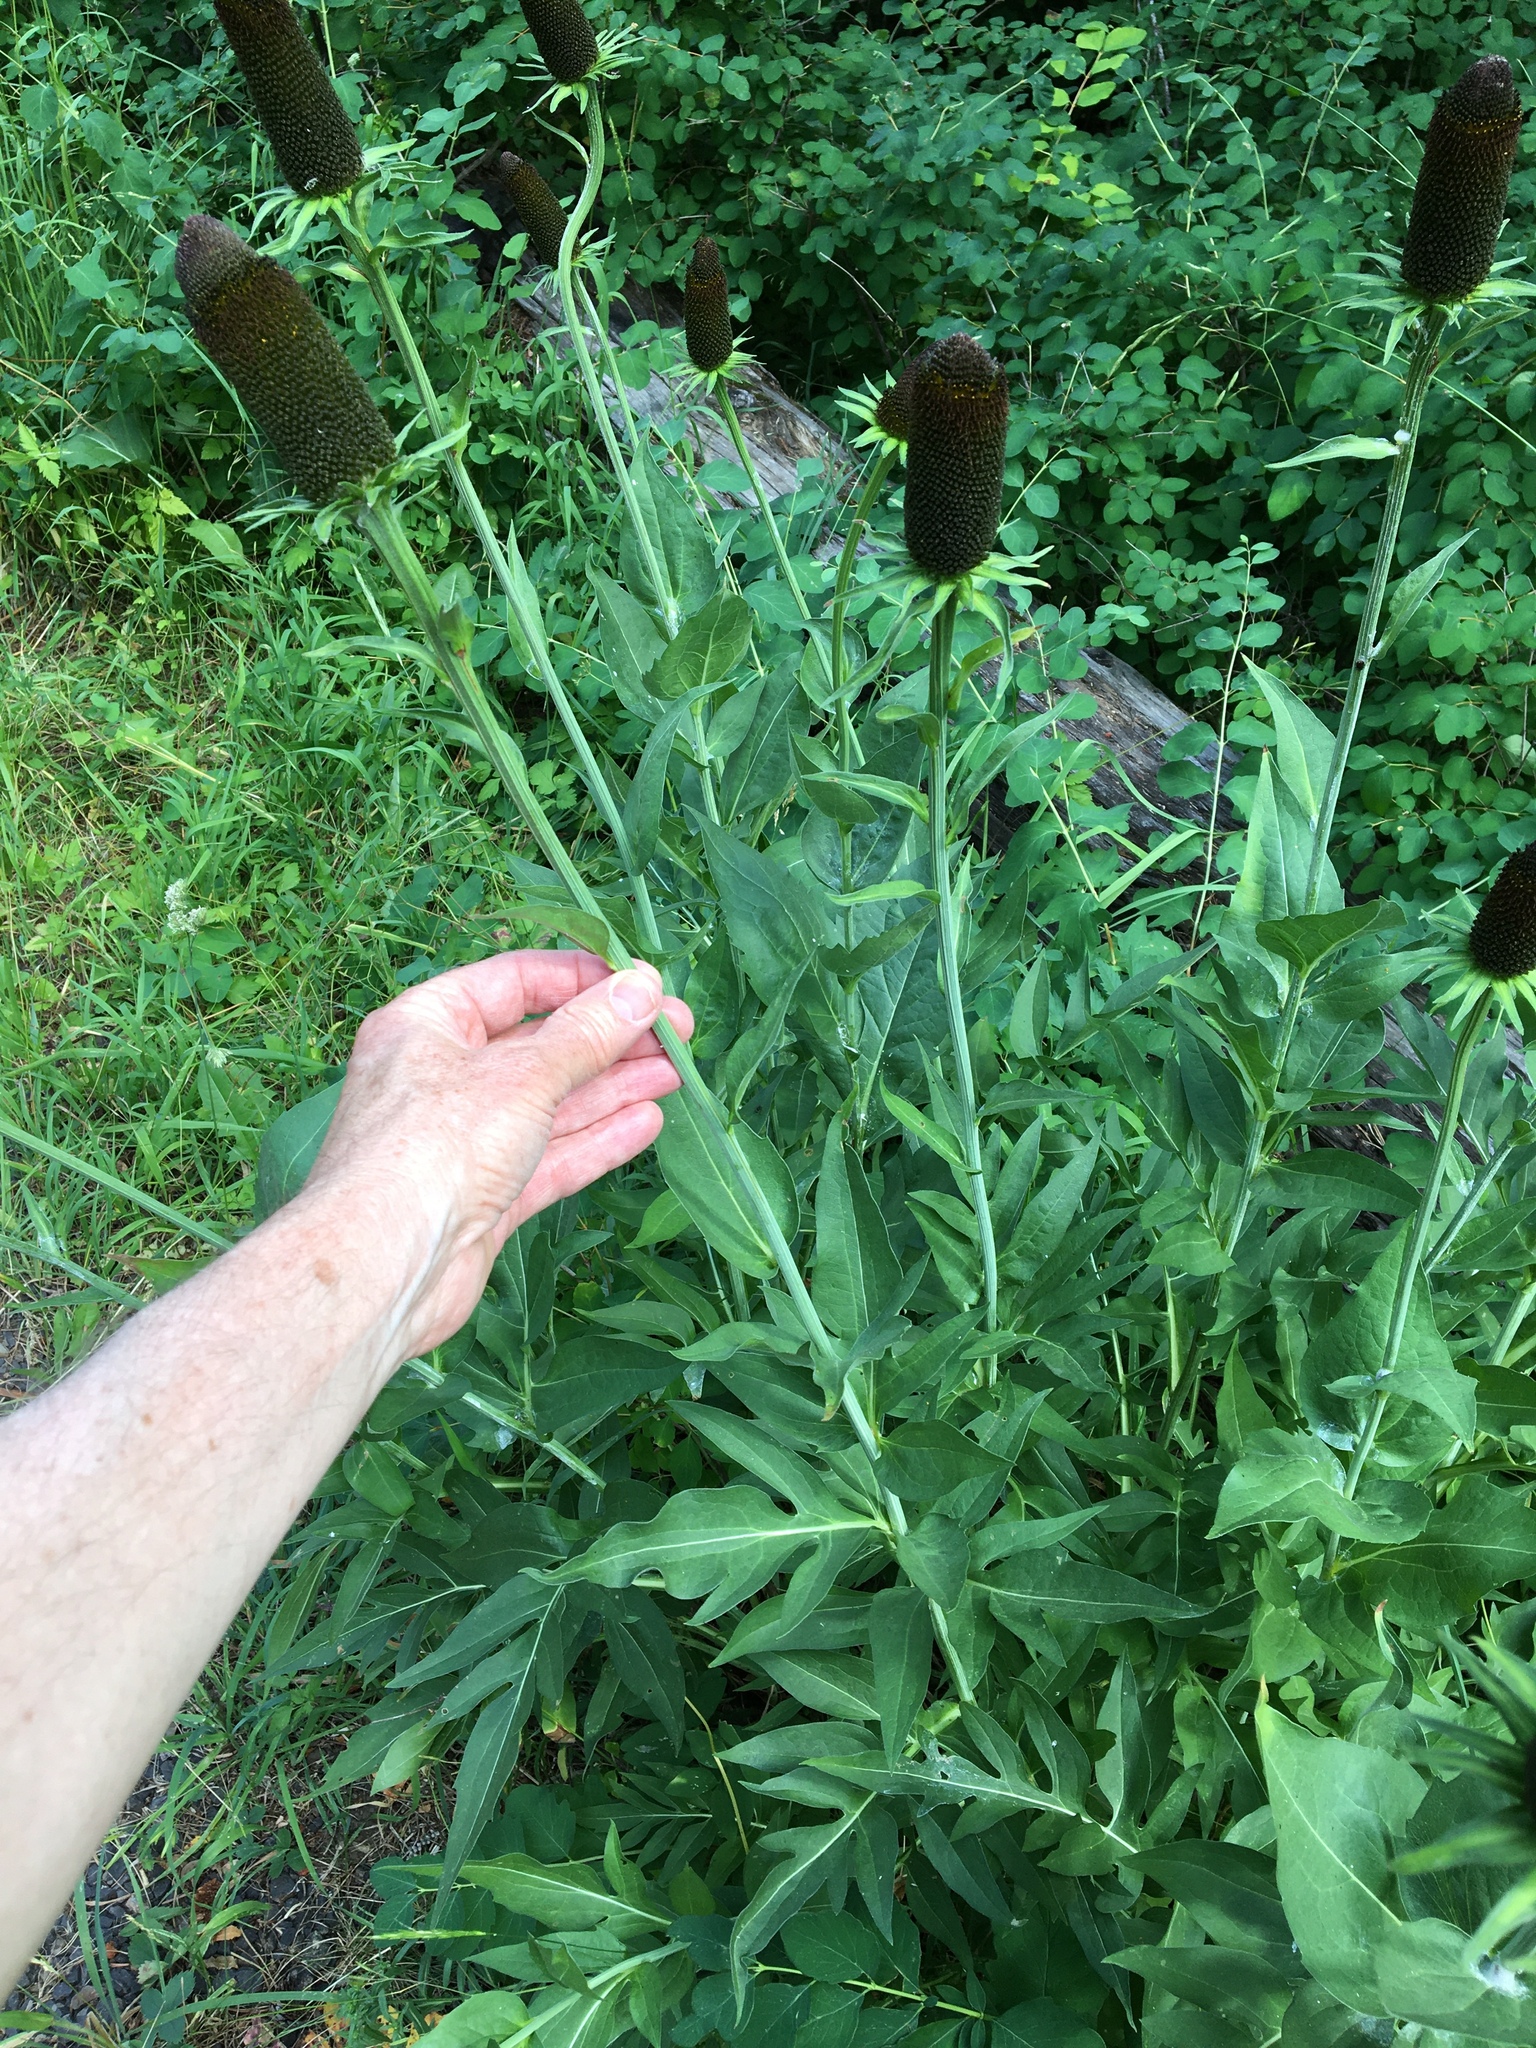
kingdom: Plantae
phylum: Tracheophyta
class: Magnoliopsida
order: Asterales
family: Asteraceae
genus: Rudbeckia
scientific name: Rudbeckia alpicola
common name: Washington coneflower
